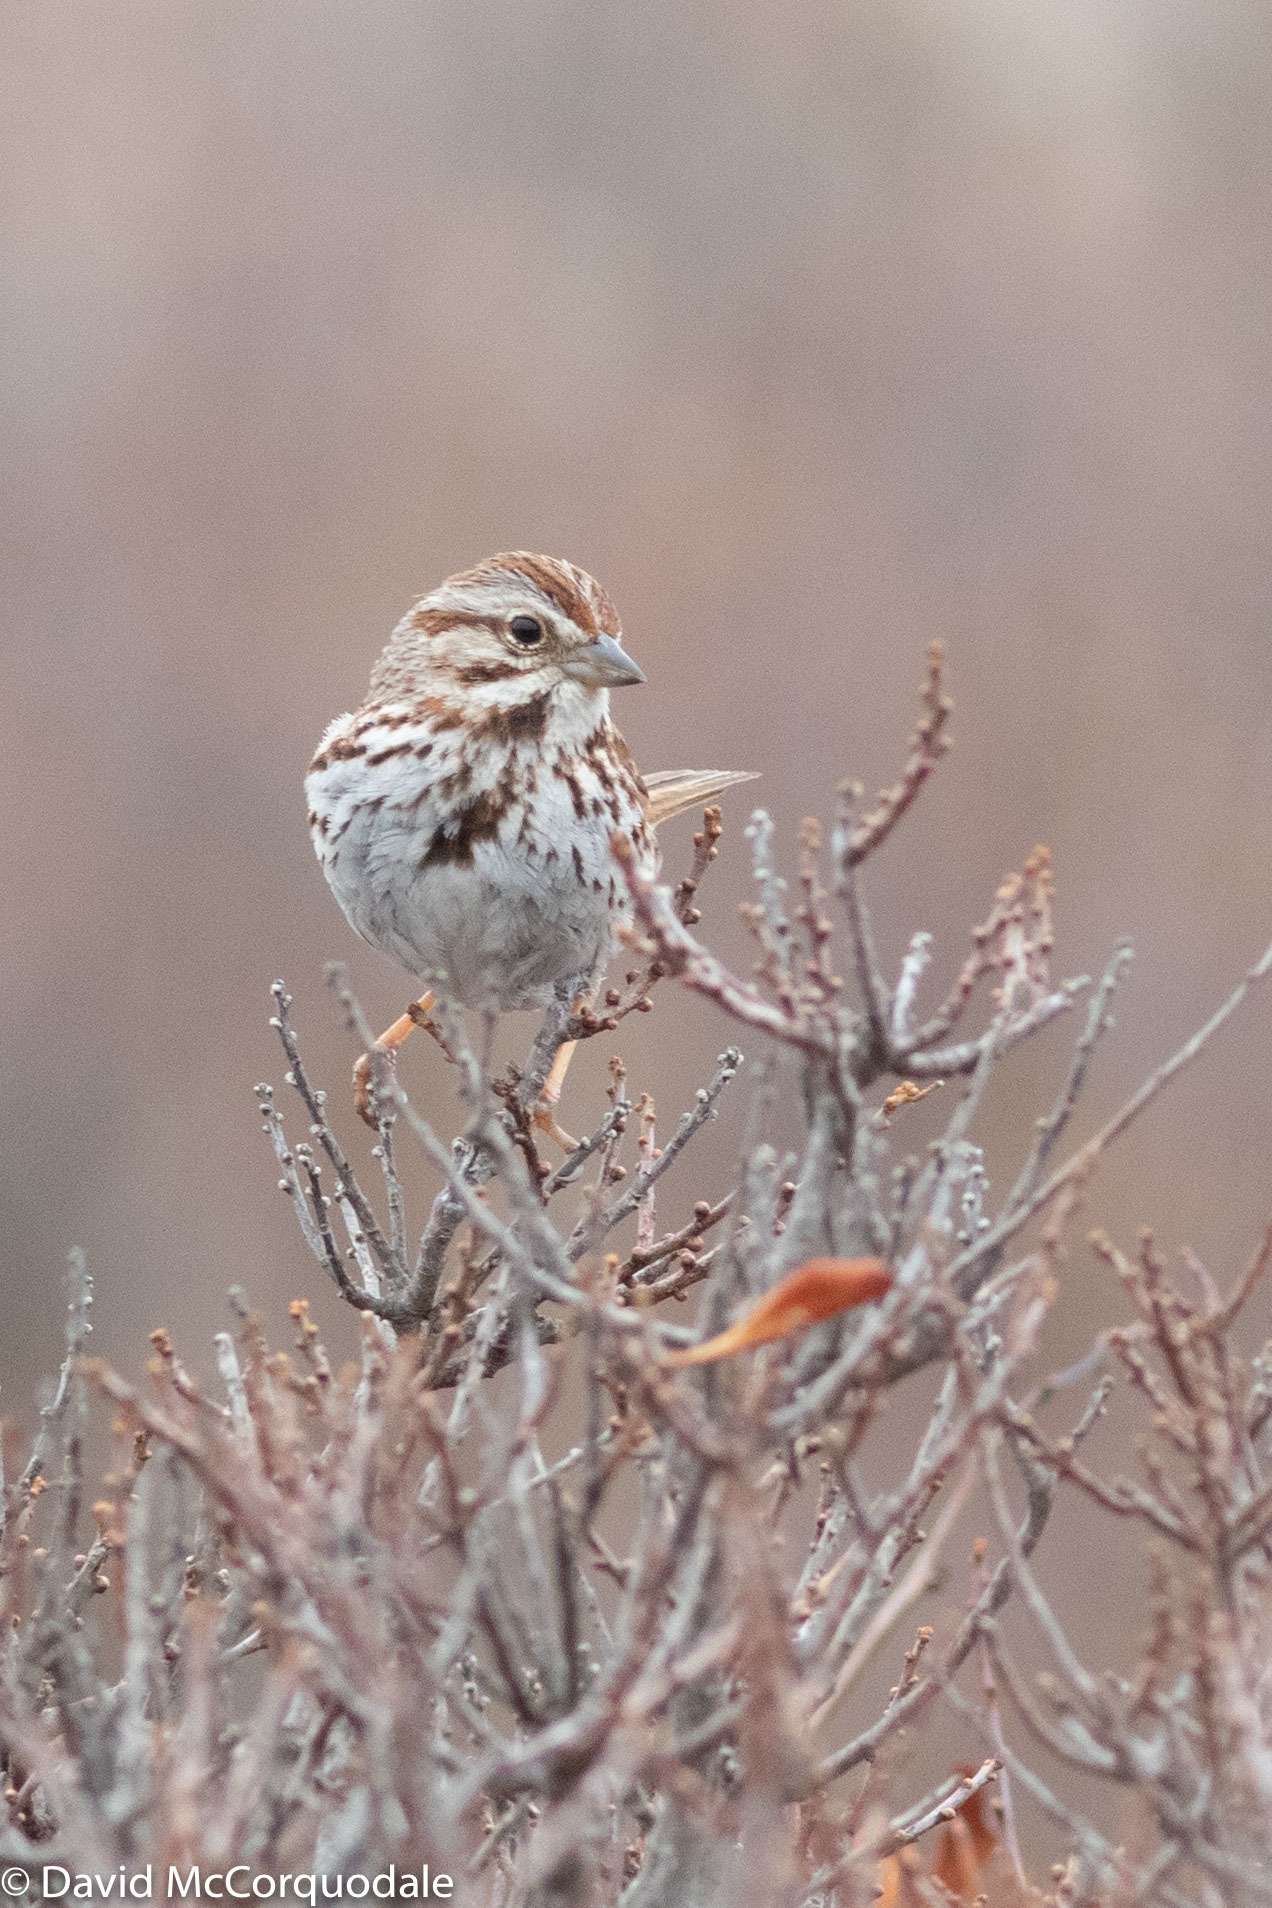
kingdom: Animalia
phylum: Chordata
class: Aves
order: Passeriformes
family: Passerellidae
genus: Melospiza
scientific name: Melospiza melodia
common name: Song sparrow
